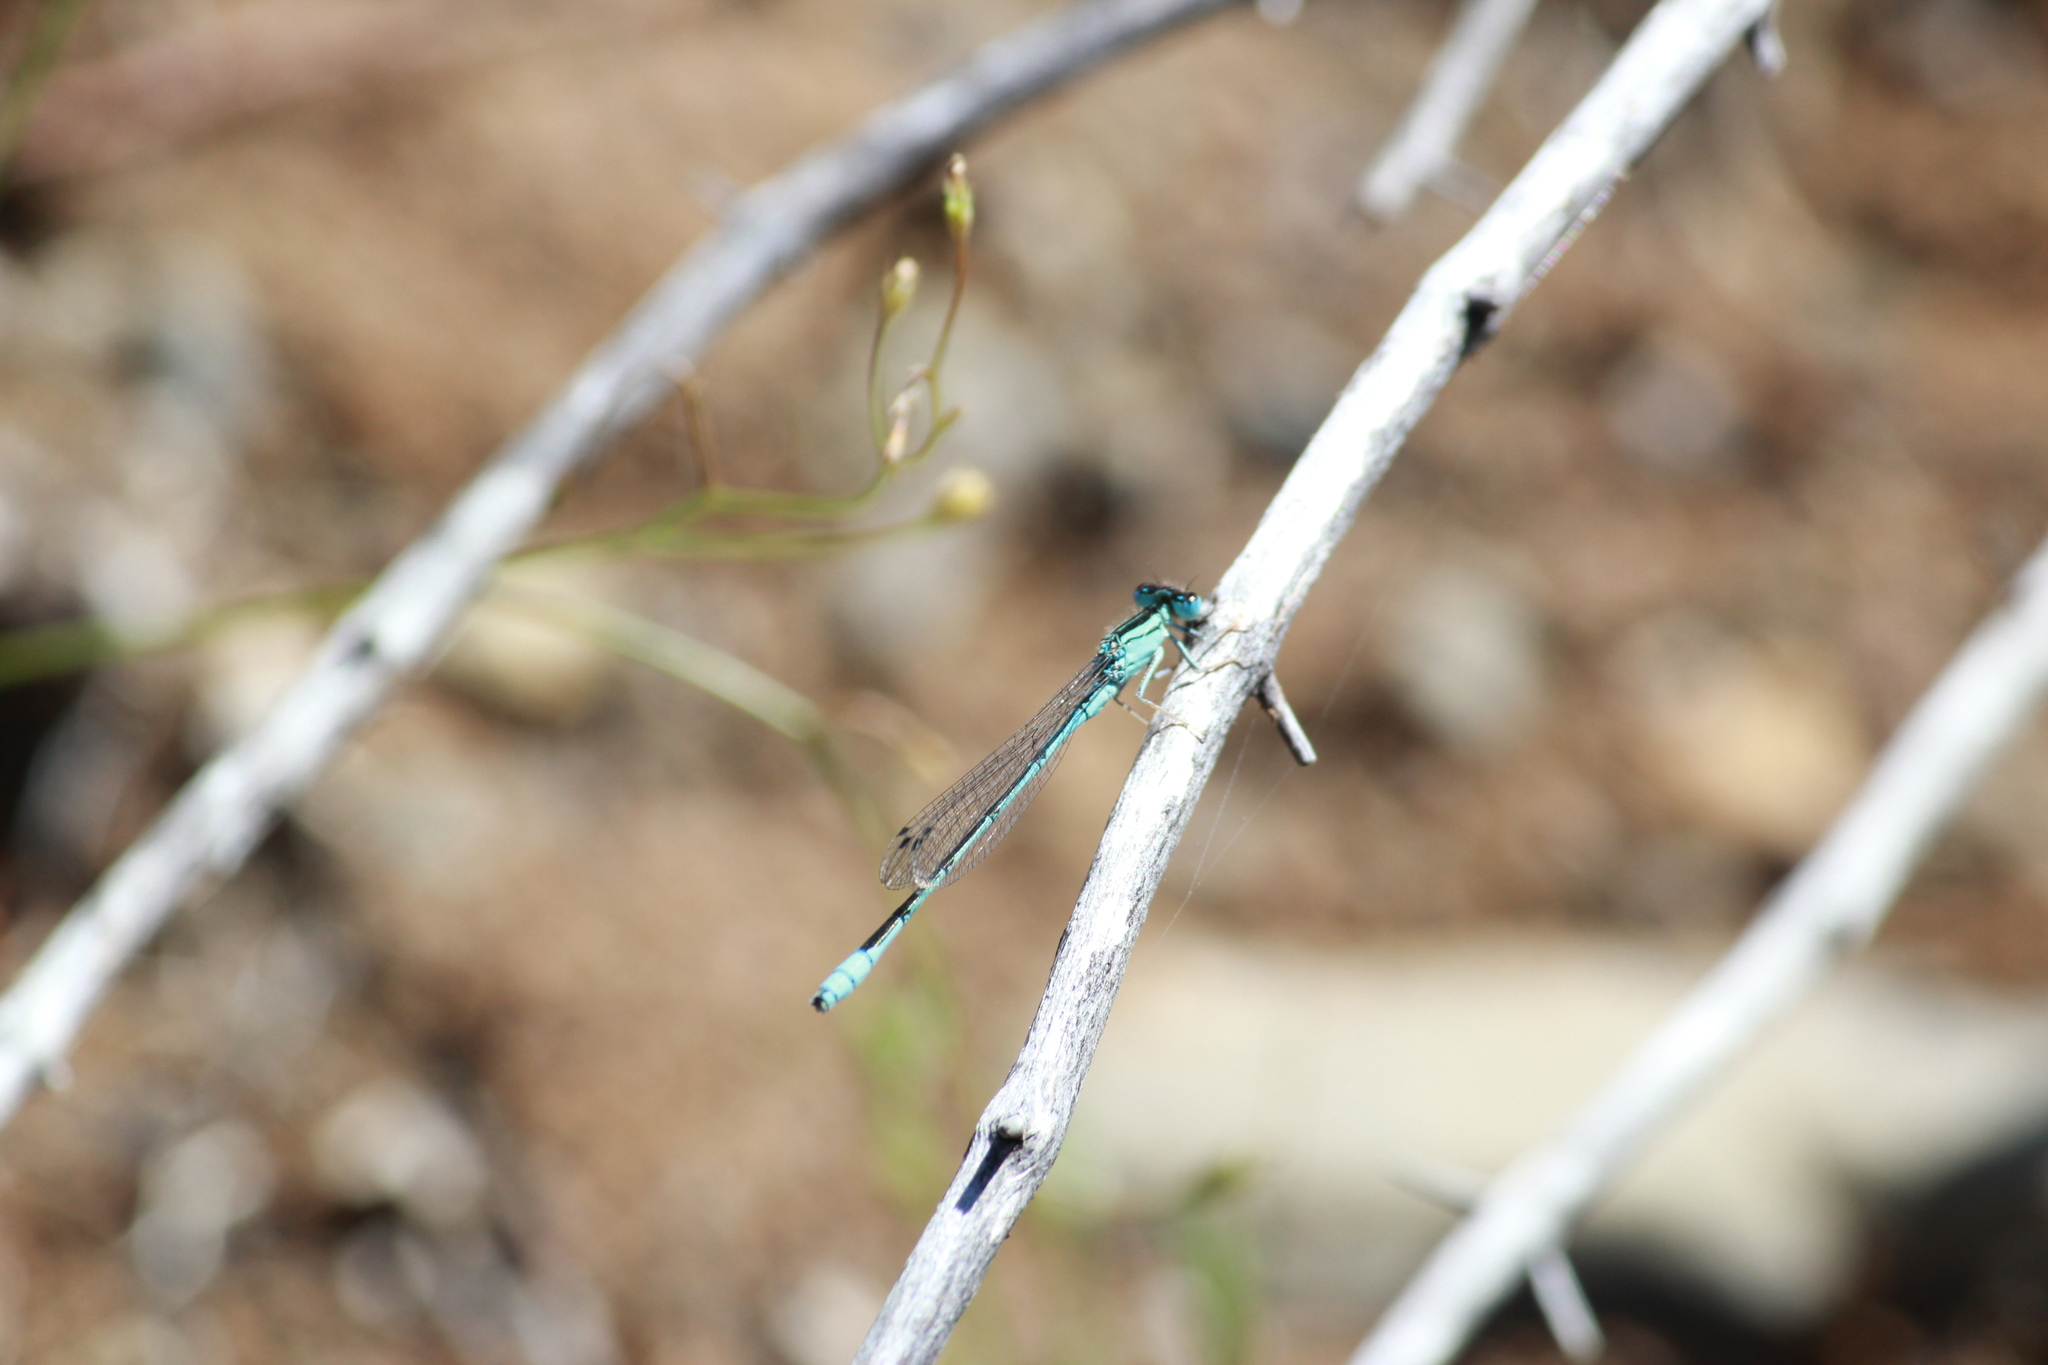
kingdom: Animalia
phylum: Arthropoda
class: Insecta
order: Odonata
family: Coenagrionidae
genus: Africallagma
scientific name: Africallagma glaucum
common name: Swamp bluet
